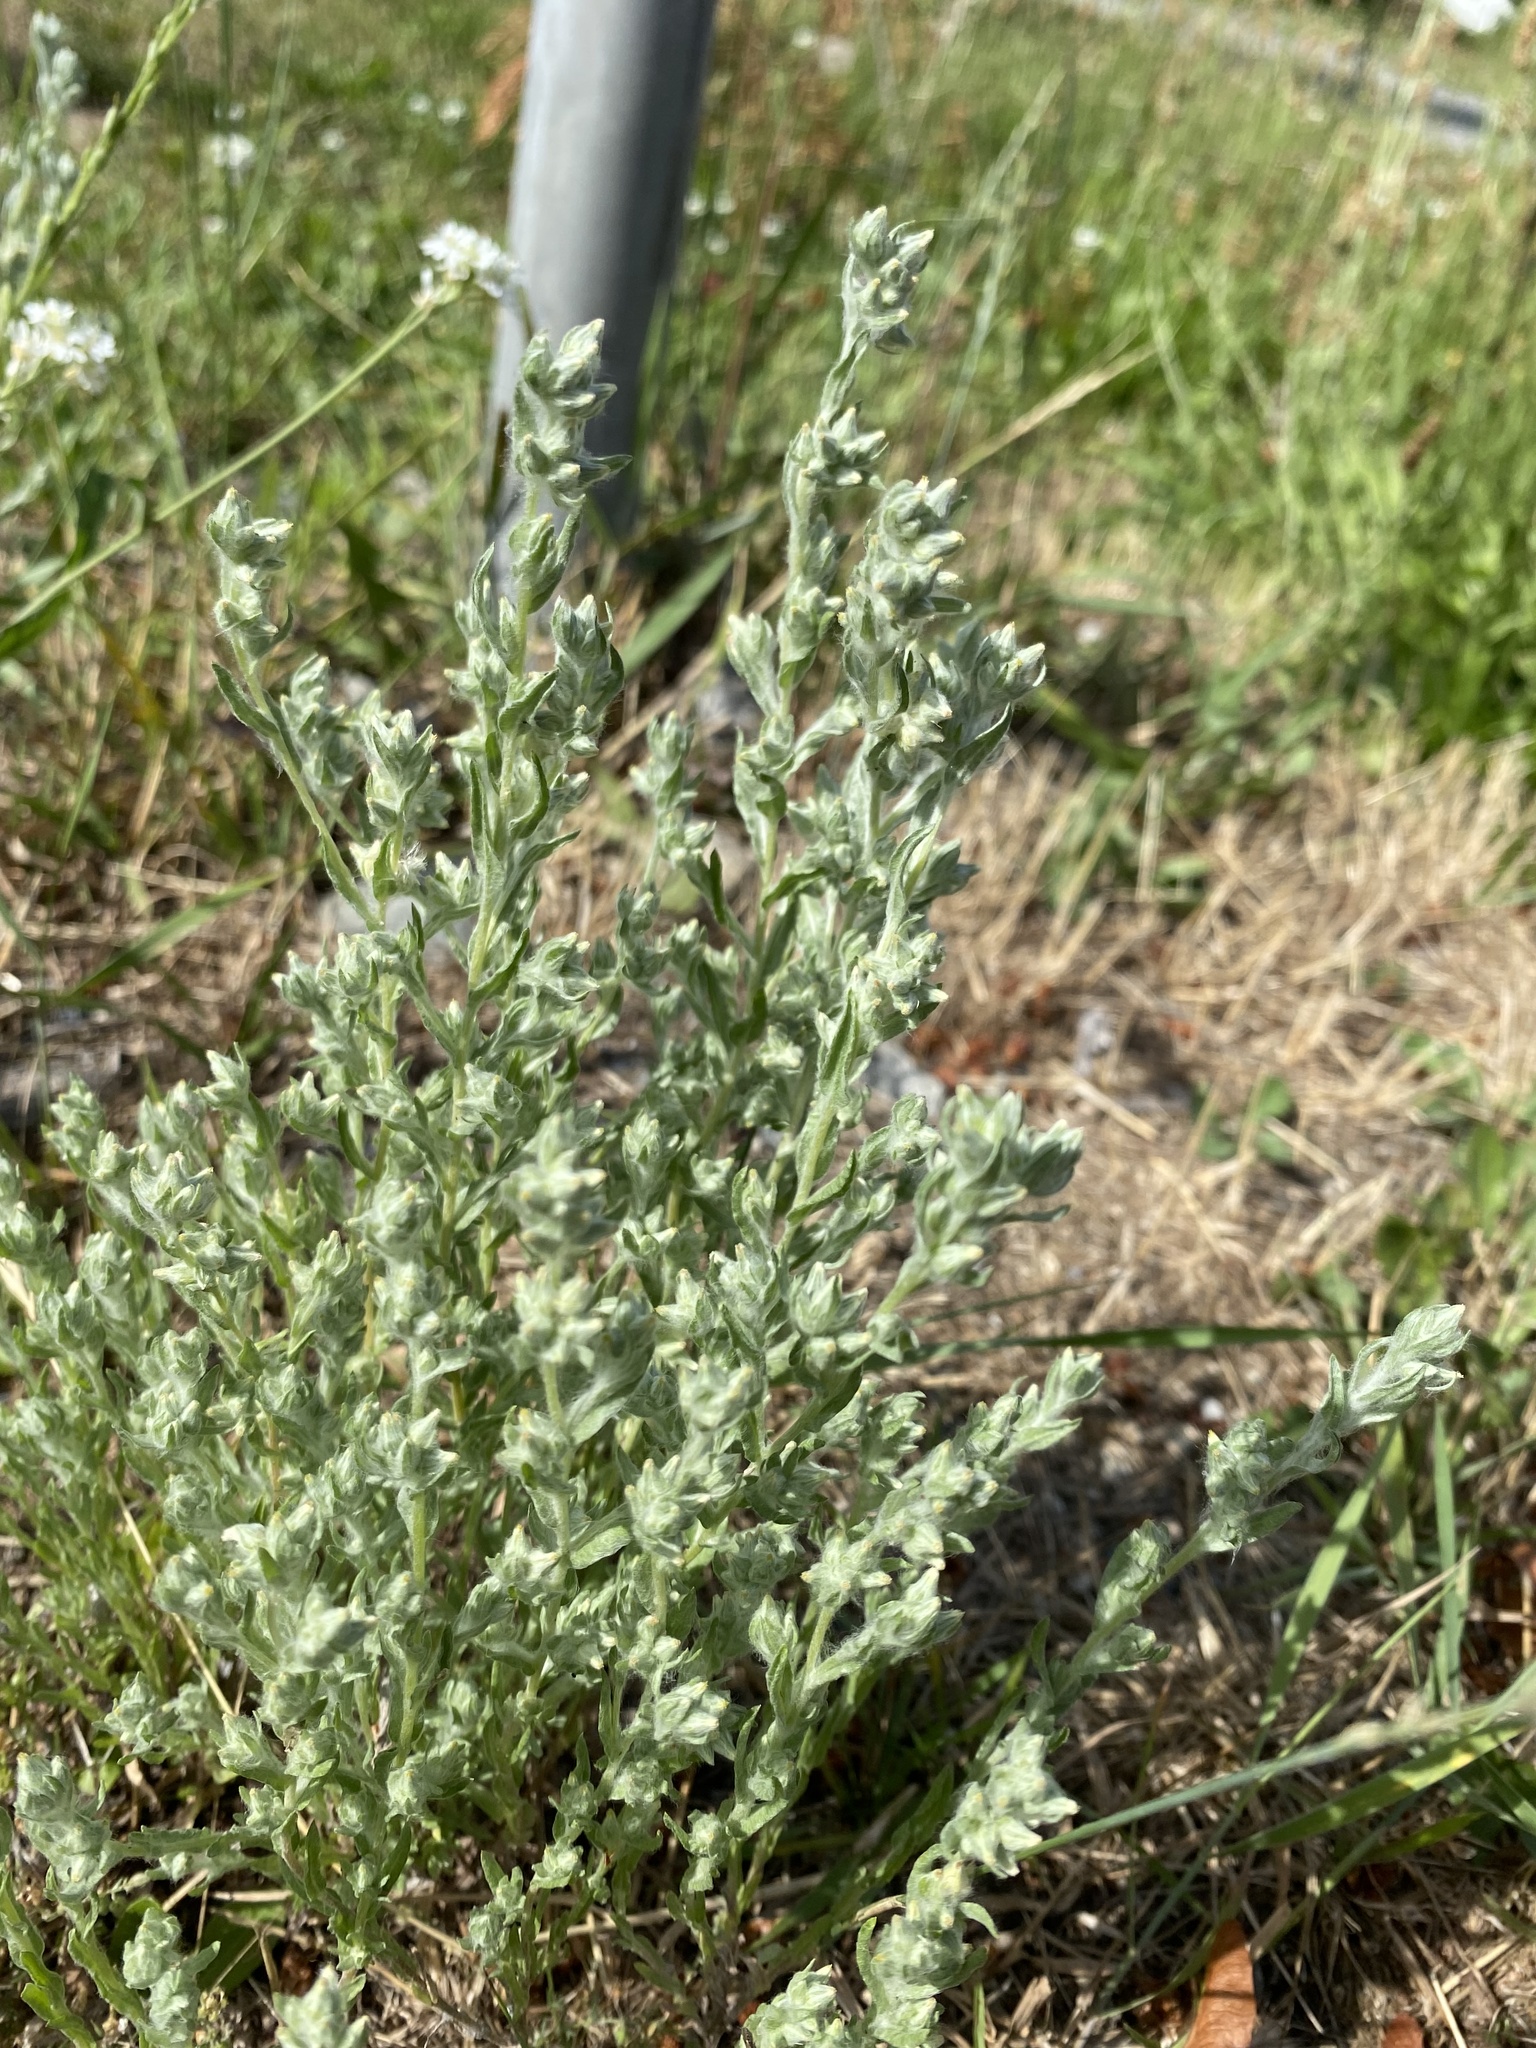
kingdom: Plantae
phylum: Tracheophyta
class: Magnoliopsida
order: Asterales
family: Asteraceae
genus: Filago
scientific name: Filago arvensis
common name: Field cudweed
